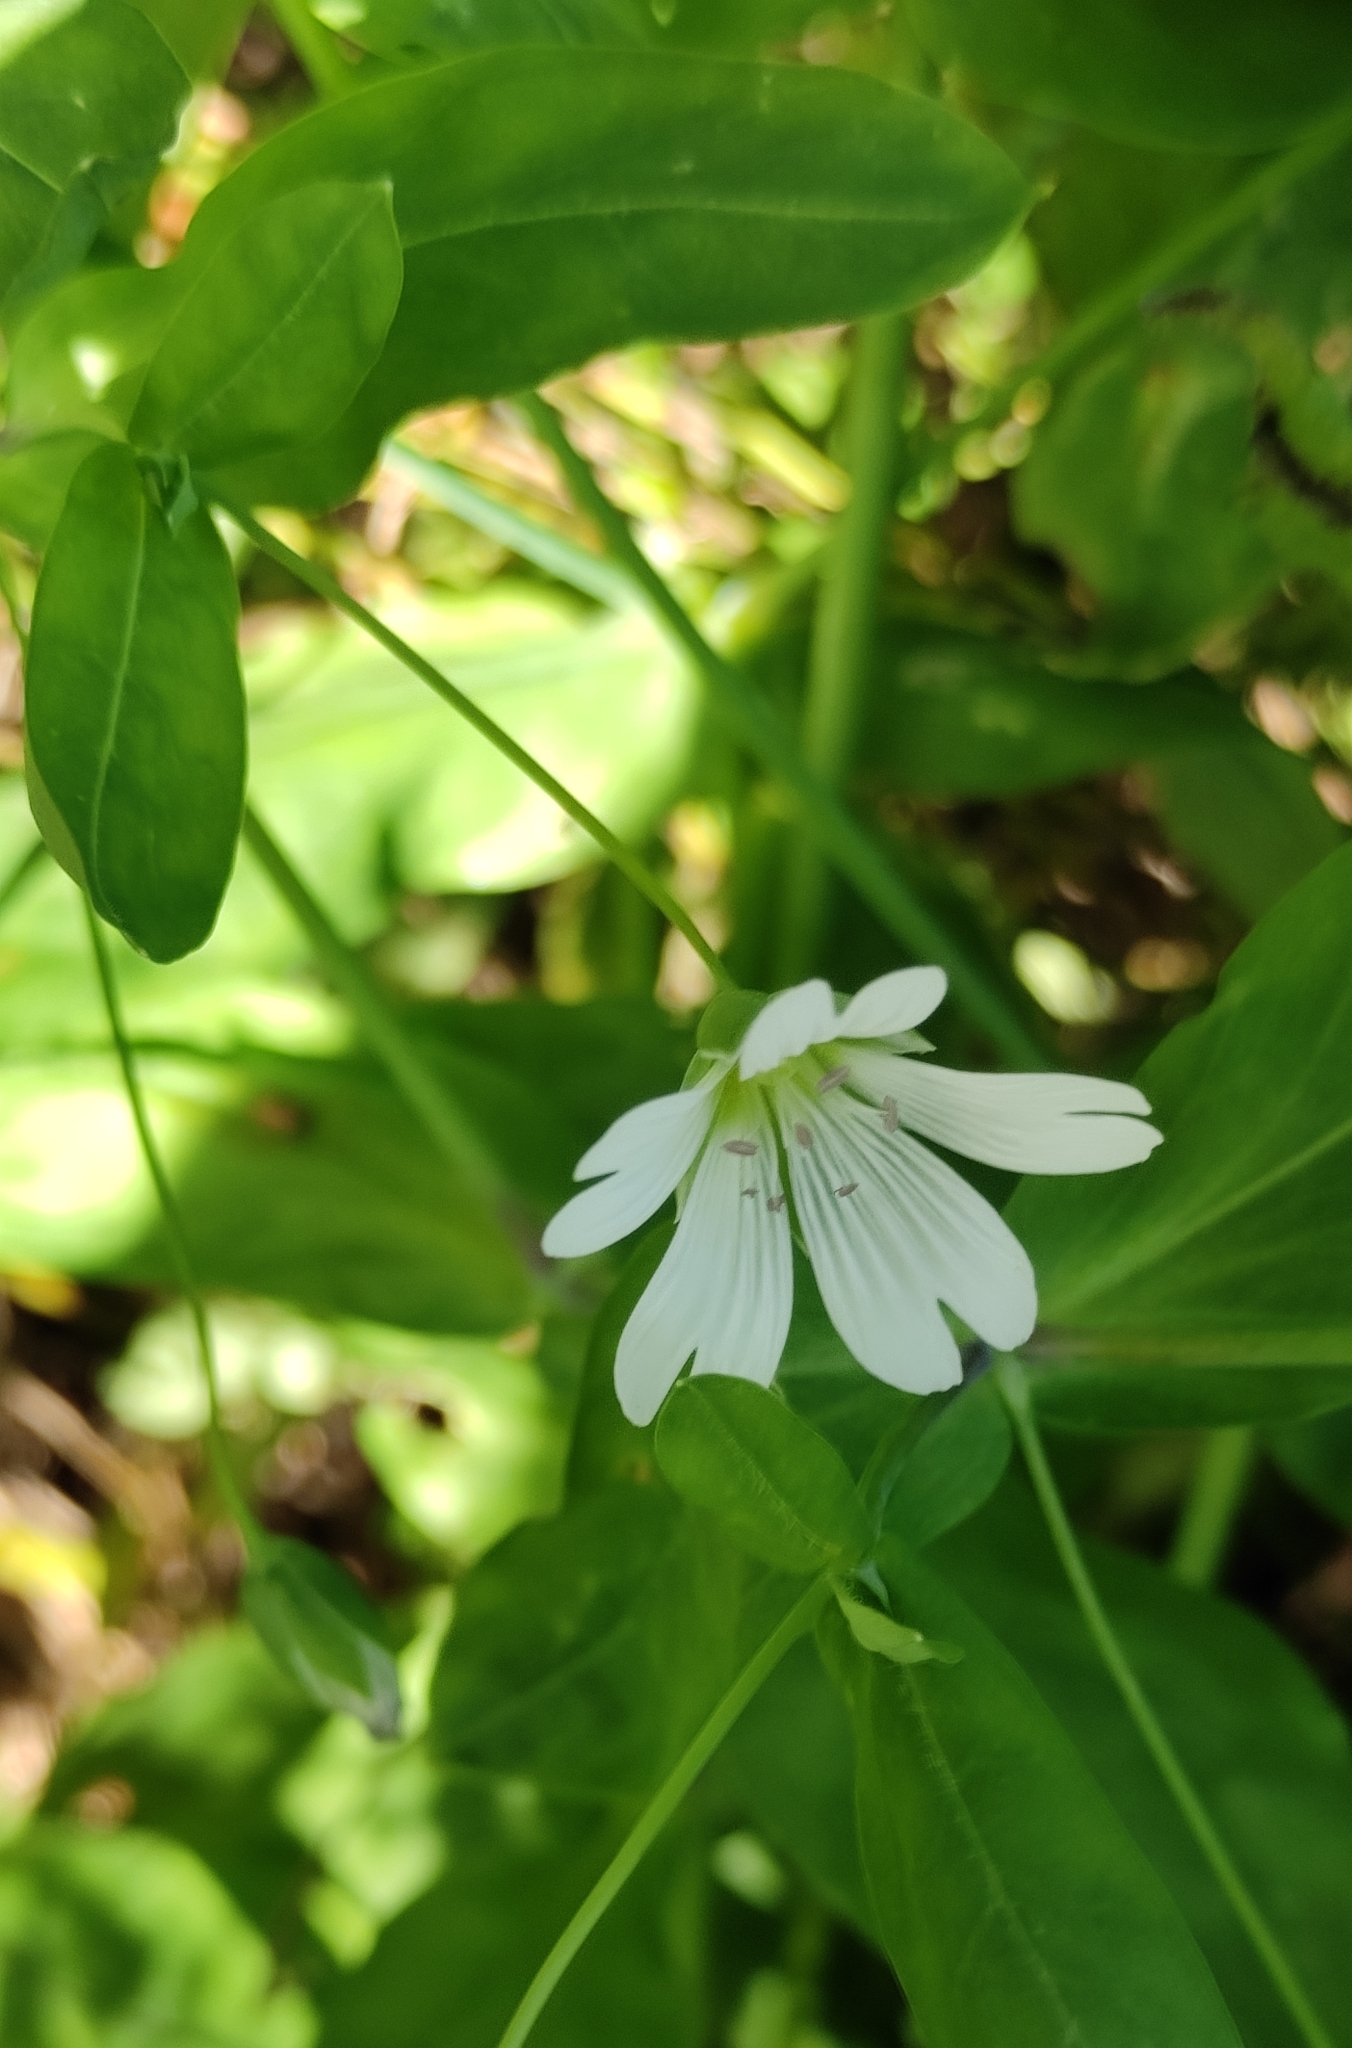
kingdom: Plantae
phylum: Tracheophyta
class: Magnoliopsida
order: Caryophyllales
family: Caryophyllaceae
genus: Cerastium
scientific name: Cerastium davuricum
